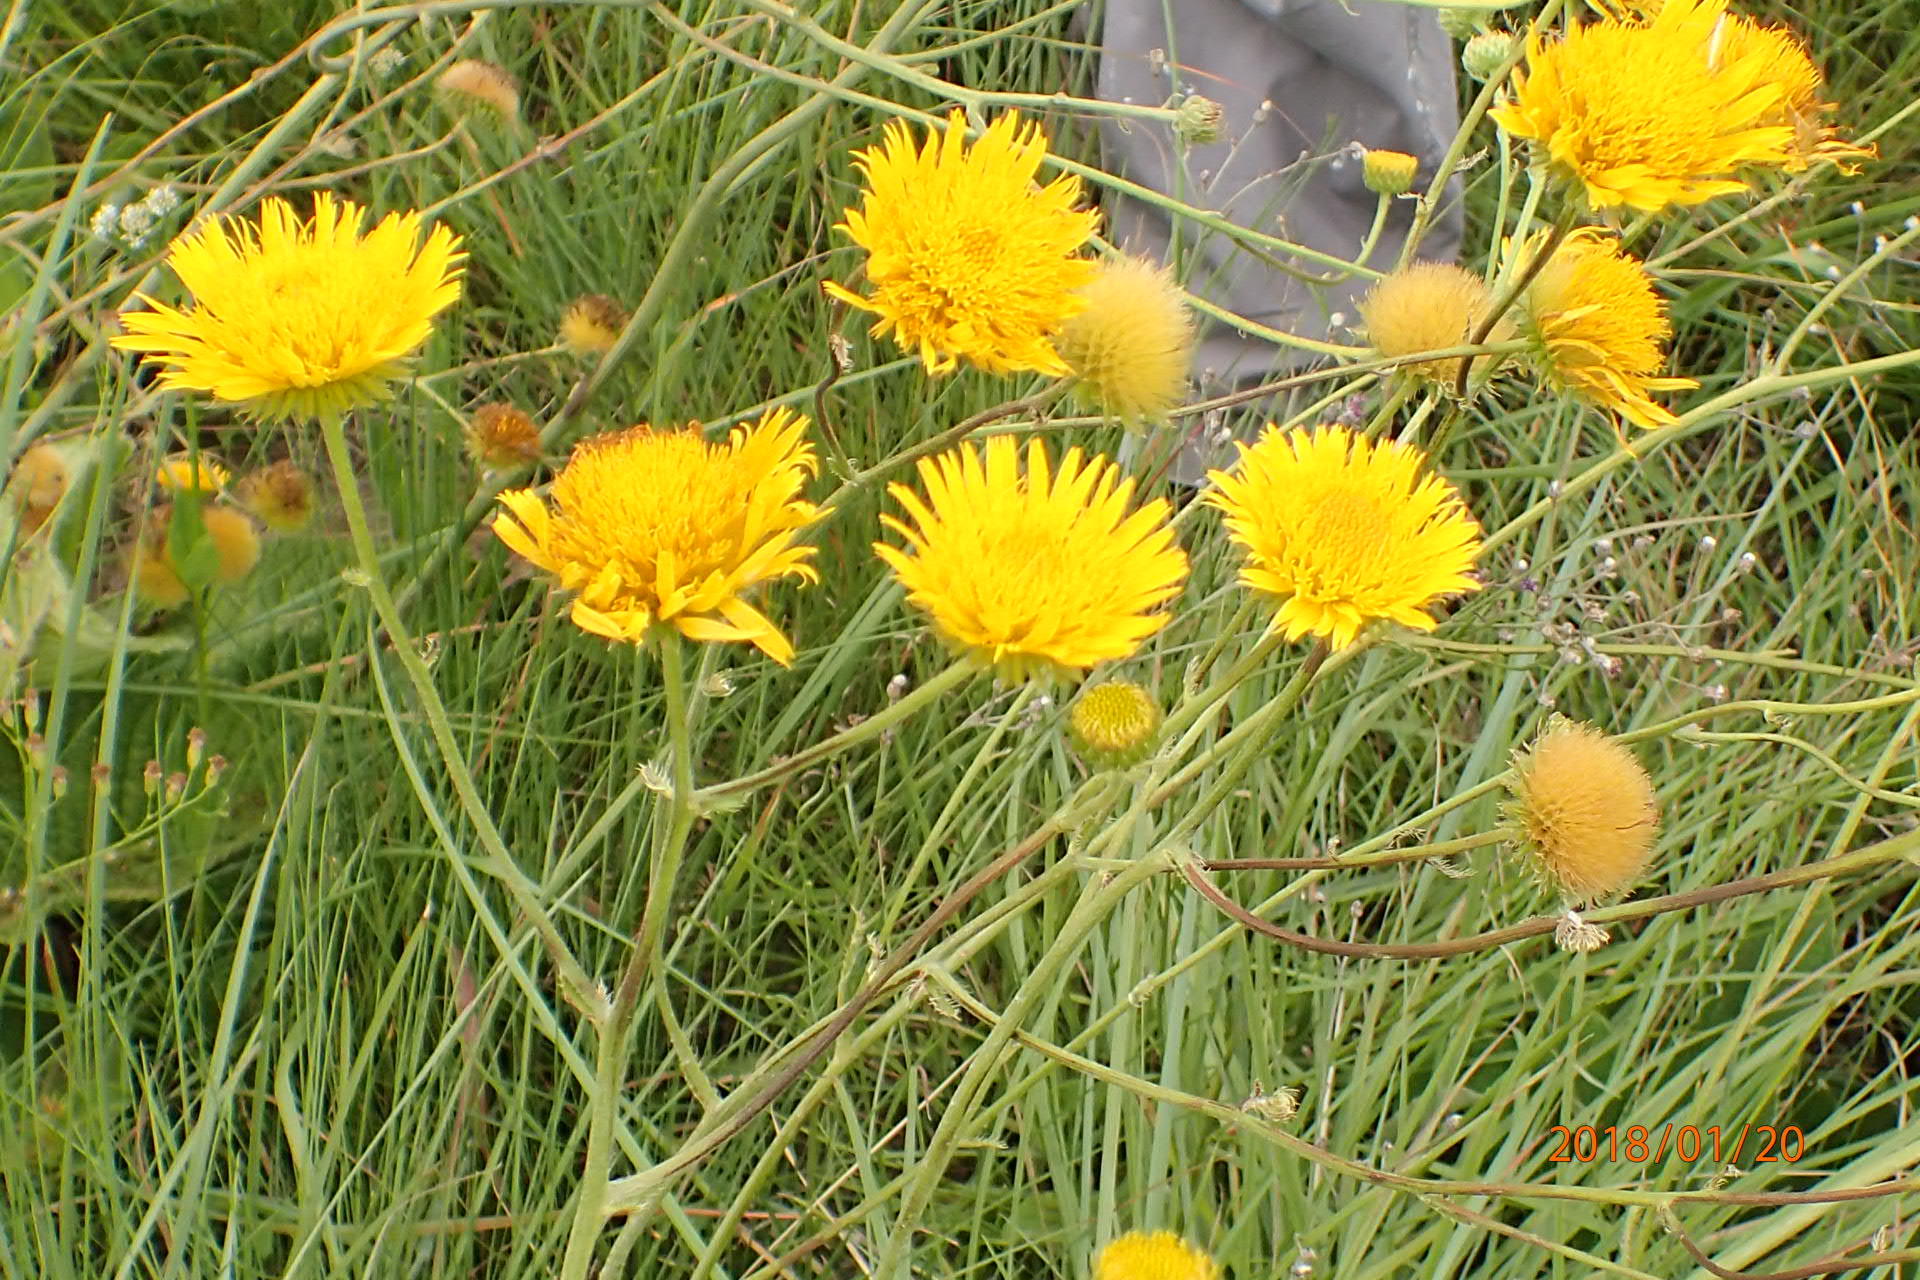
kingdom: Plantae
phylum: Tracheophyta
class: Magnoliopsida
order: Asterales
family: Asteraceae
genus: Berkheya
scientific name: Berkheya setifera
